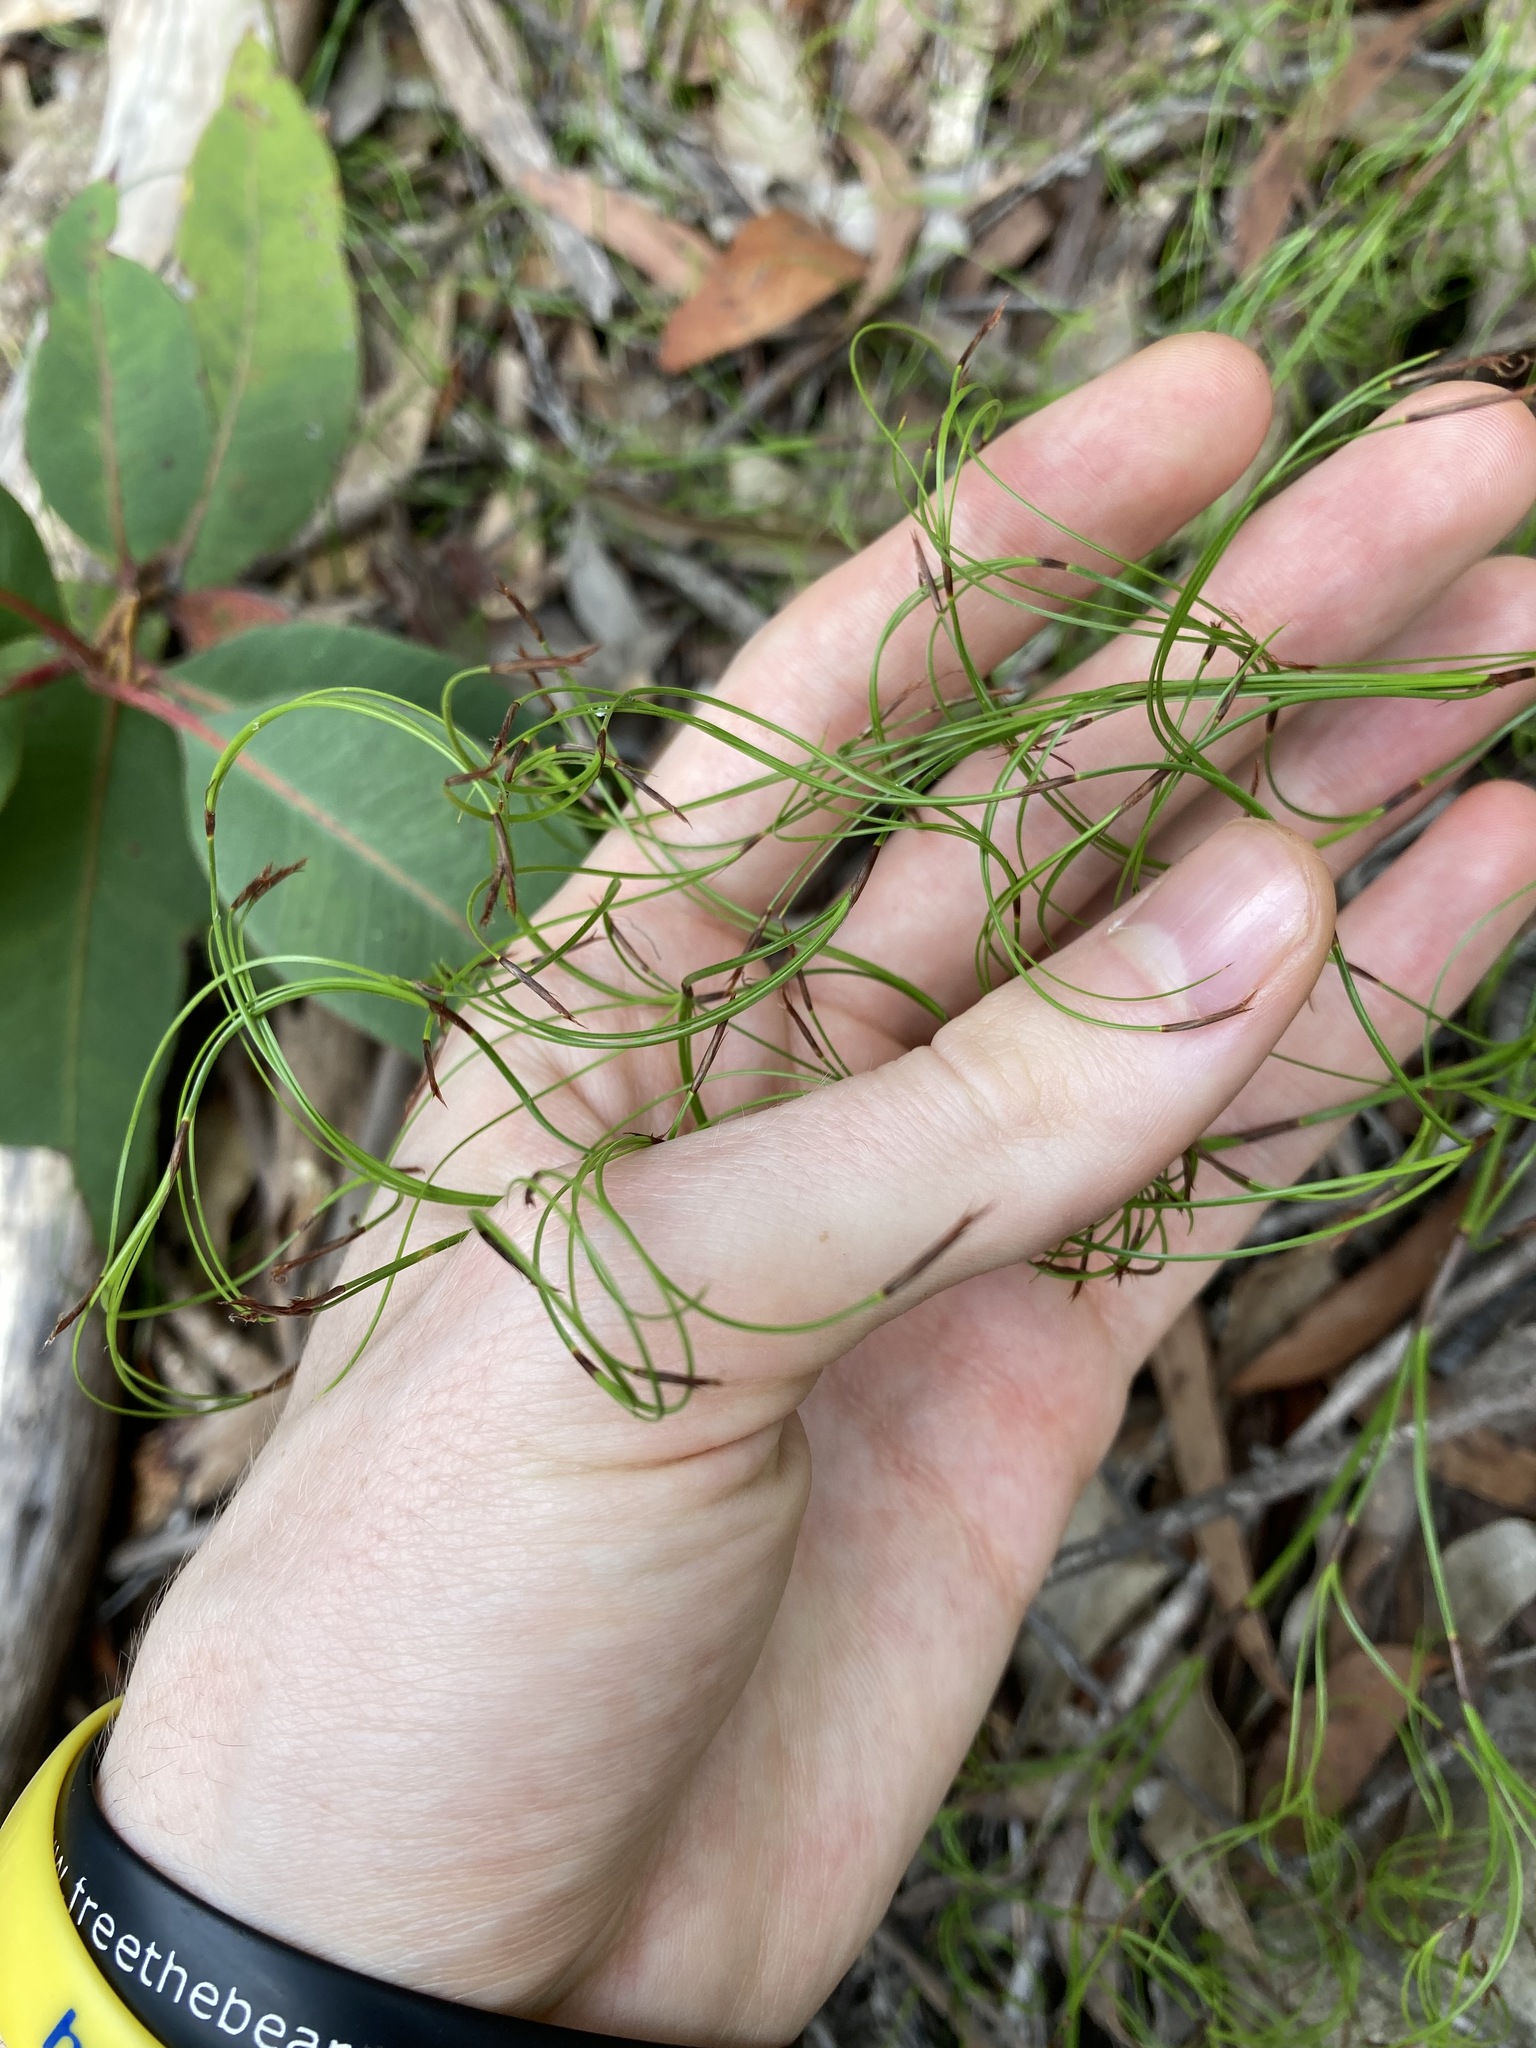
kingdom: Plantae
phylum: Tracheophyta
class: Liliopsida
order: Poales
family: Cyperaceae
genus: Caustis
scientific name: Caustis flexuosa
